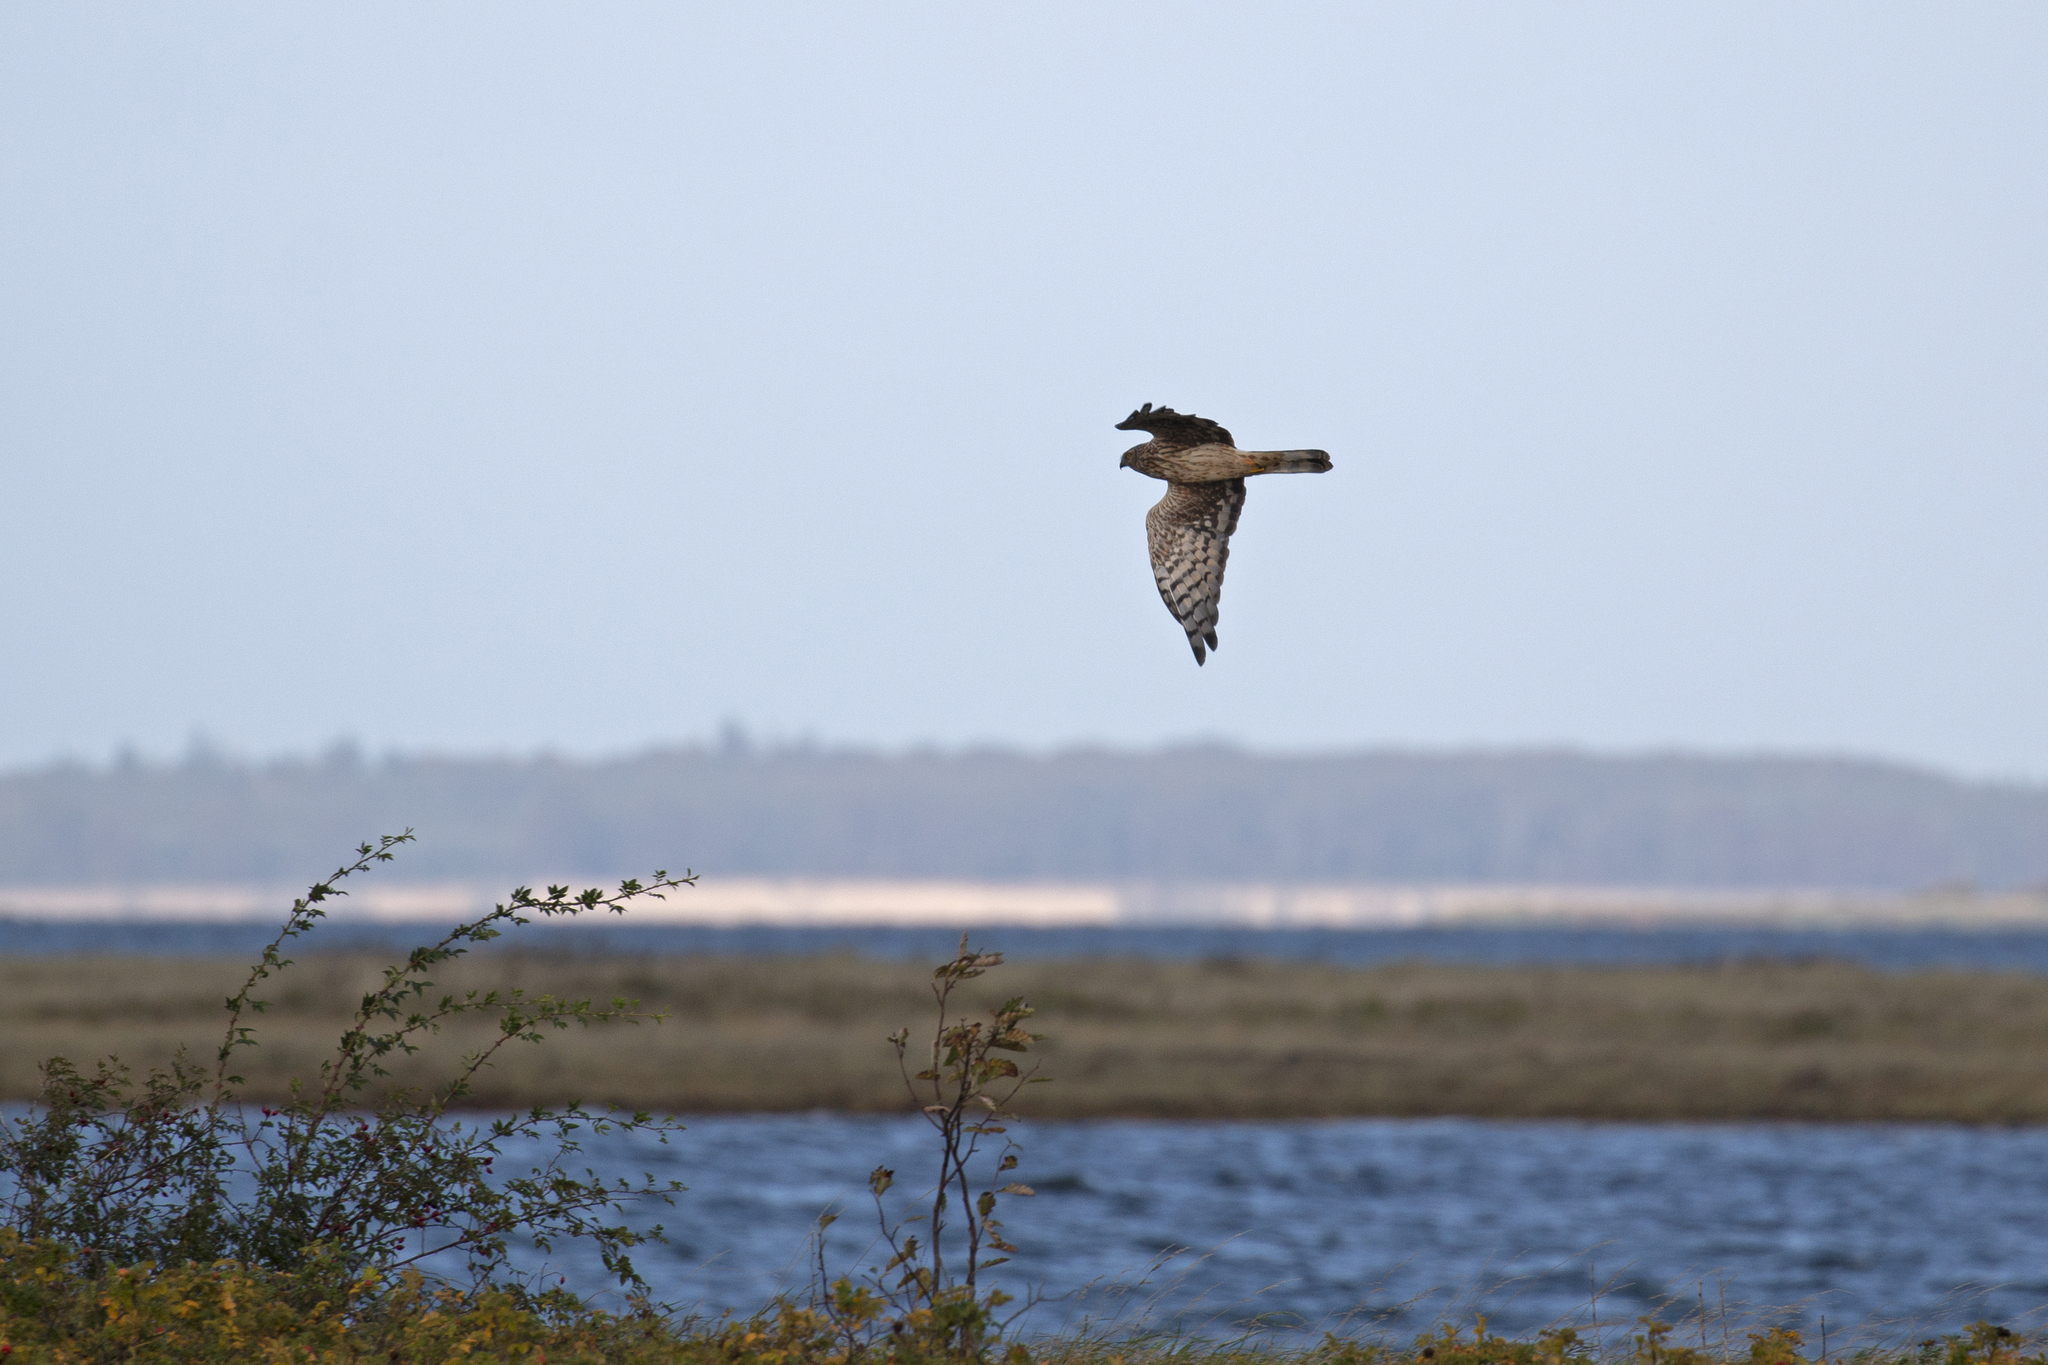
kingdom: Animalia
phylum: Chordata
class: Aves
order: Accipitriformes
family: Accipitridae
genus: Circus
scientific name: Circus cyaneus
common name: Hen harrier
